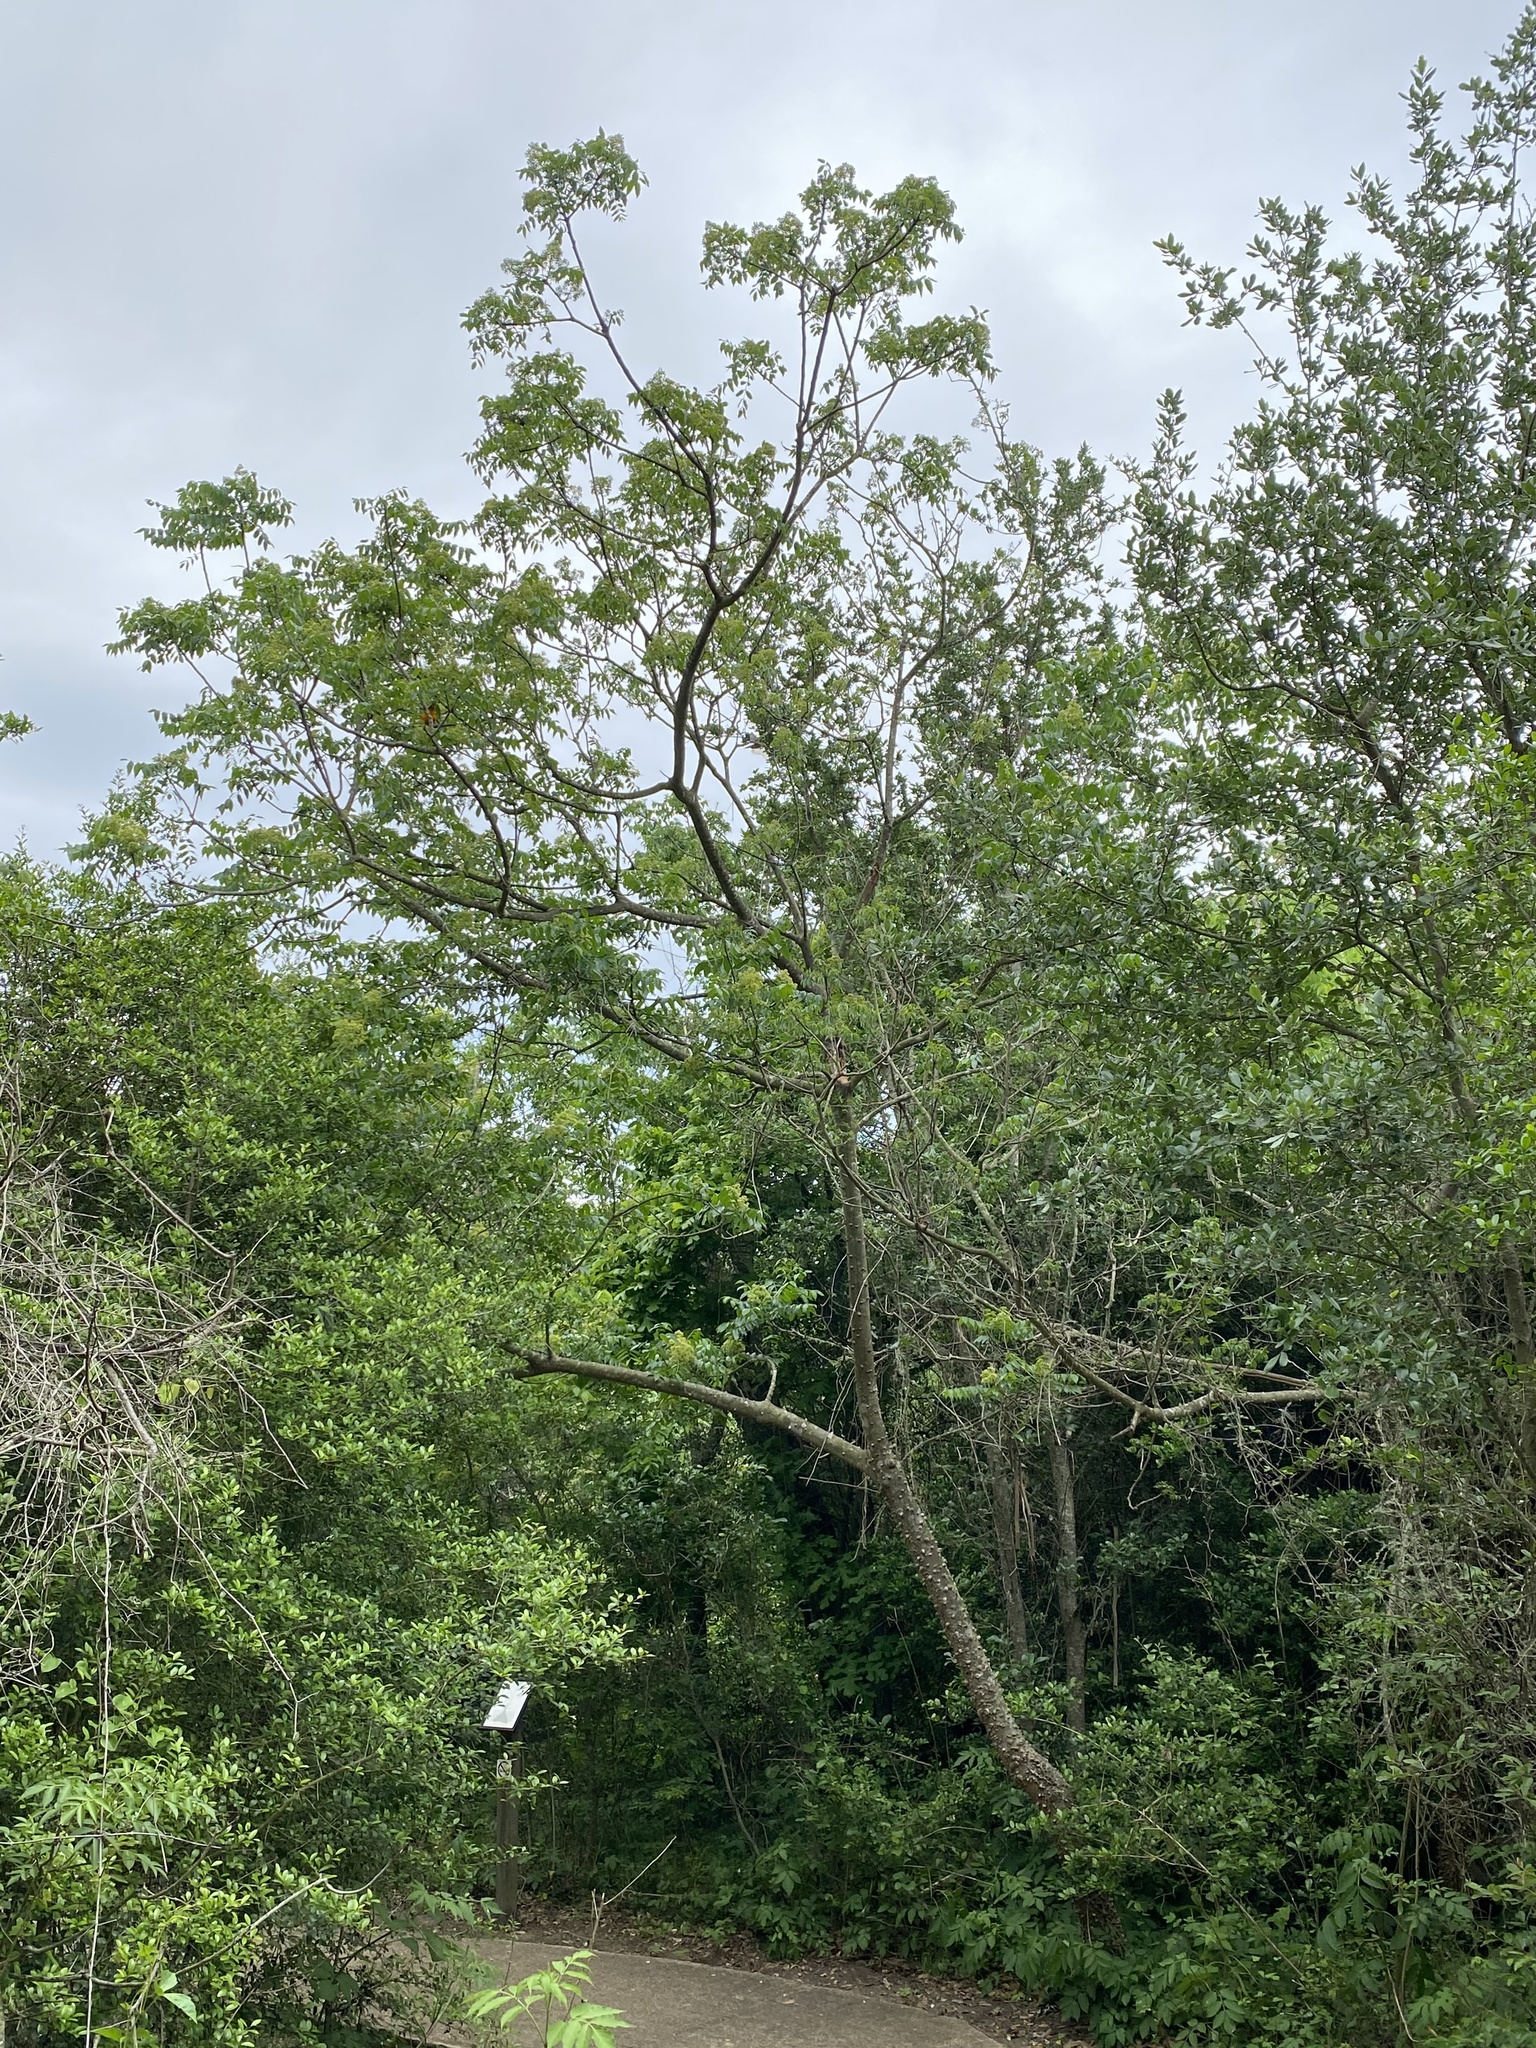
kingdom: Plantae
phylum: Tracheophyta
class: Magnoliopsida
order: Sapindales
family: Rutaceae
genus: Zanthoxylum
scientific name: Zanthoxylum clava-herculis
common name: Hercules'-club
